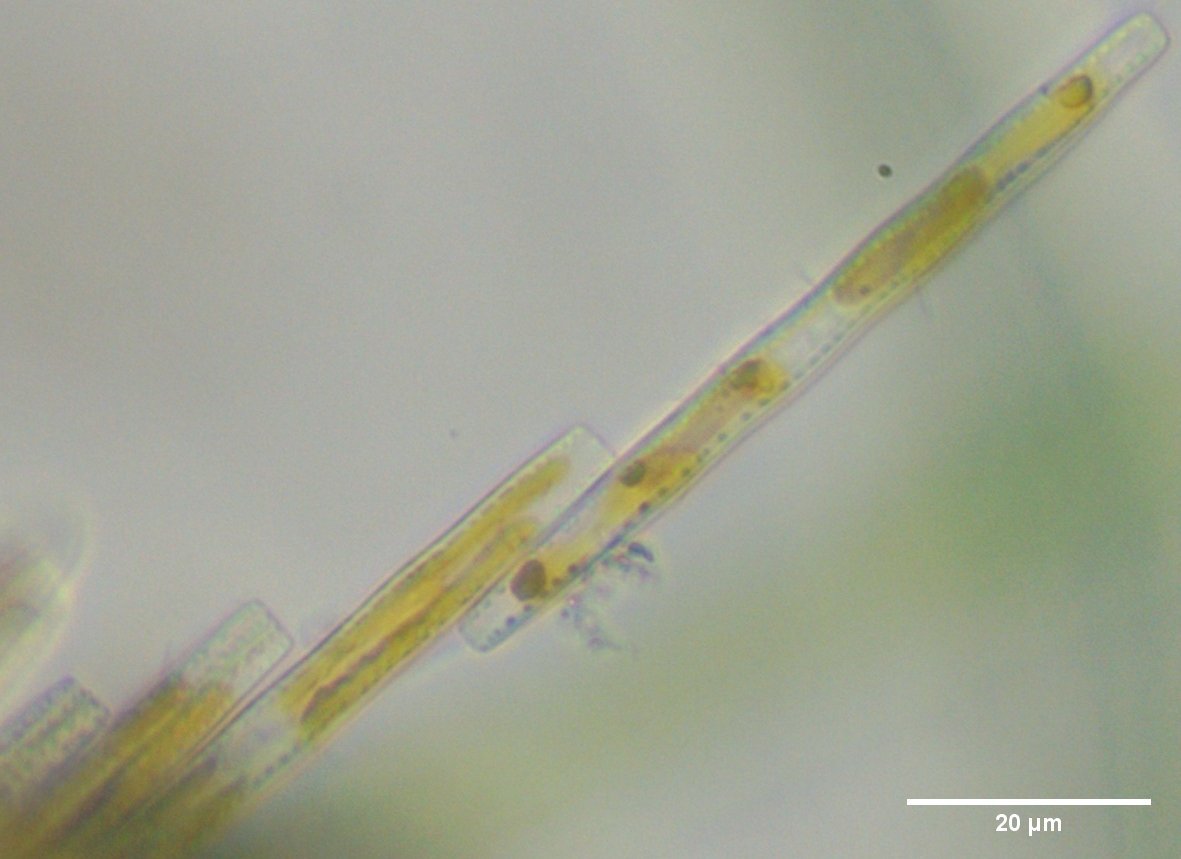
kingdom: Chromista
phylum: Ochrophyta
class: Bacillariophyceae
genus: Vibrio
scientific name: Vibrio paxillifer
